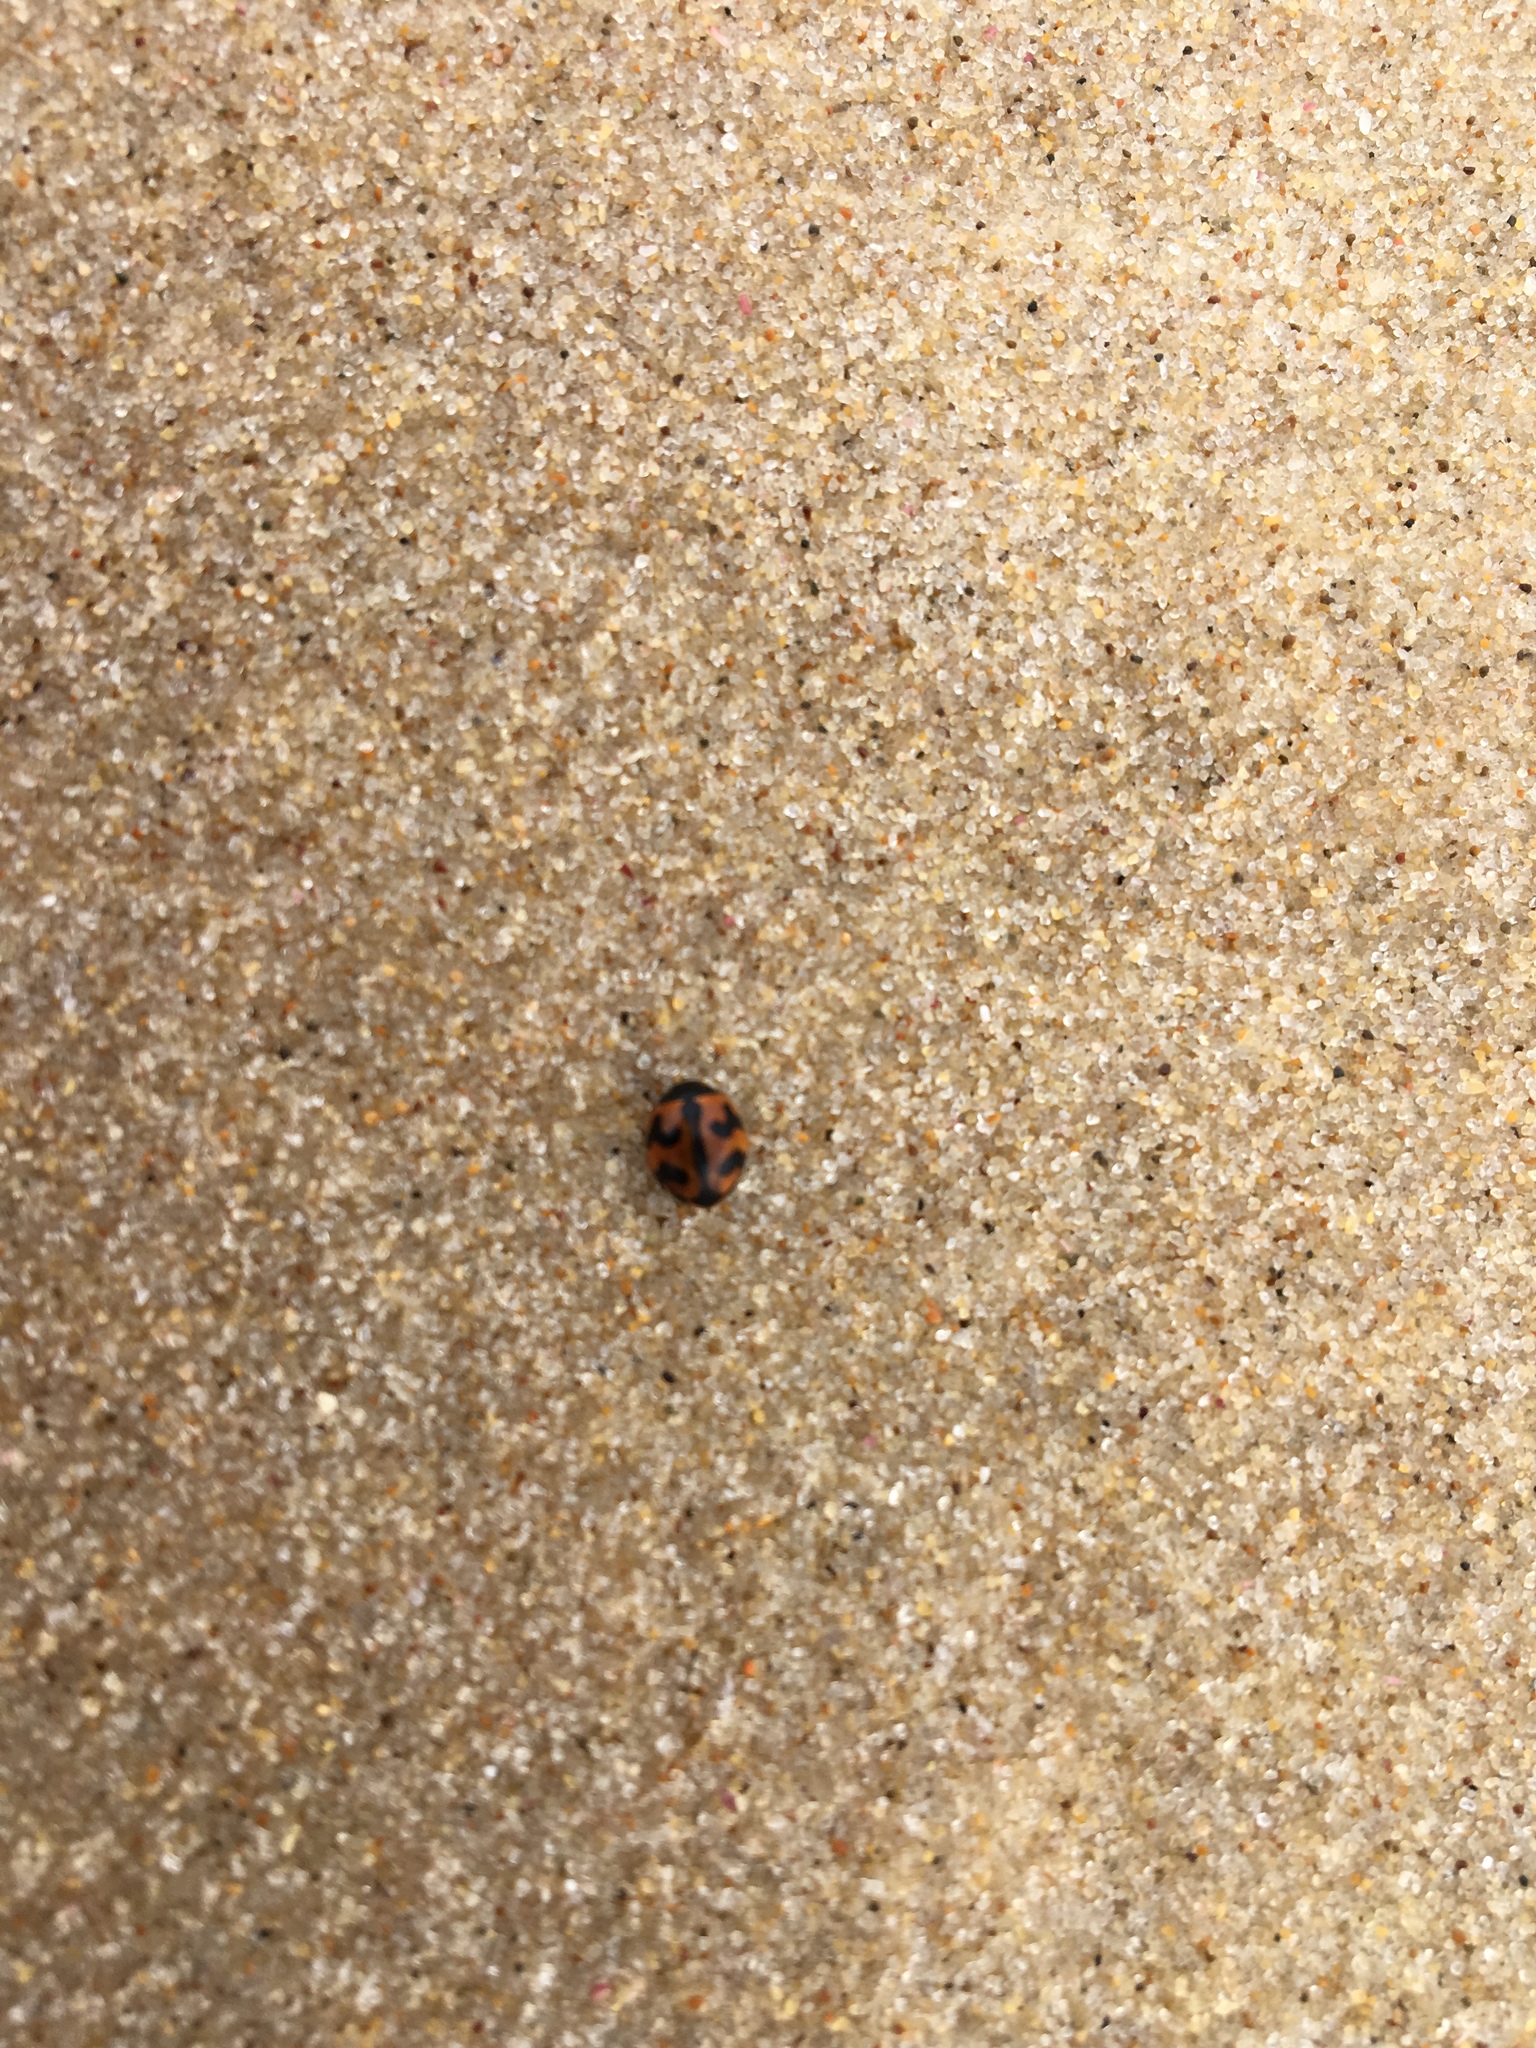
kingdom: Animalia
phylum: Arthropoda
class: Insecta
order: Coleoptera
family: Coccinellidae
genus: Coccinella
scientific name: Coccinella transversalis
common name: Transverse lady beetle
